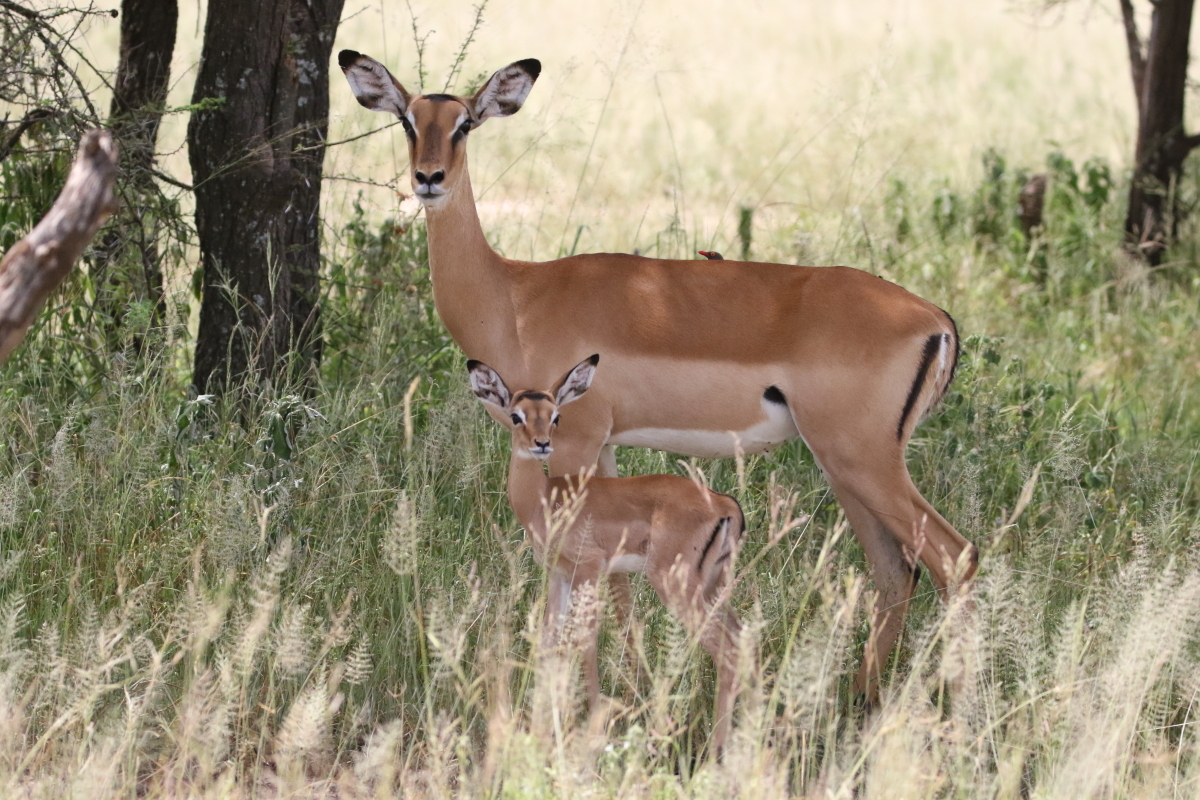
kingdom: Animalia
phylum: Chordata
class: Mammalia
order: Artiodactyla
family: Bovidae
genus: Aepyceros
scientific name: Aepyceros melampus
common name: Impala
